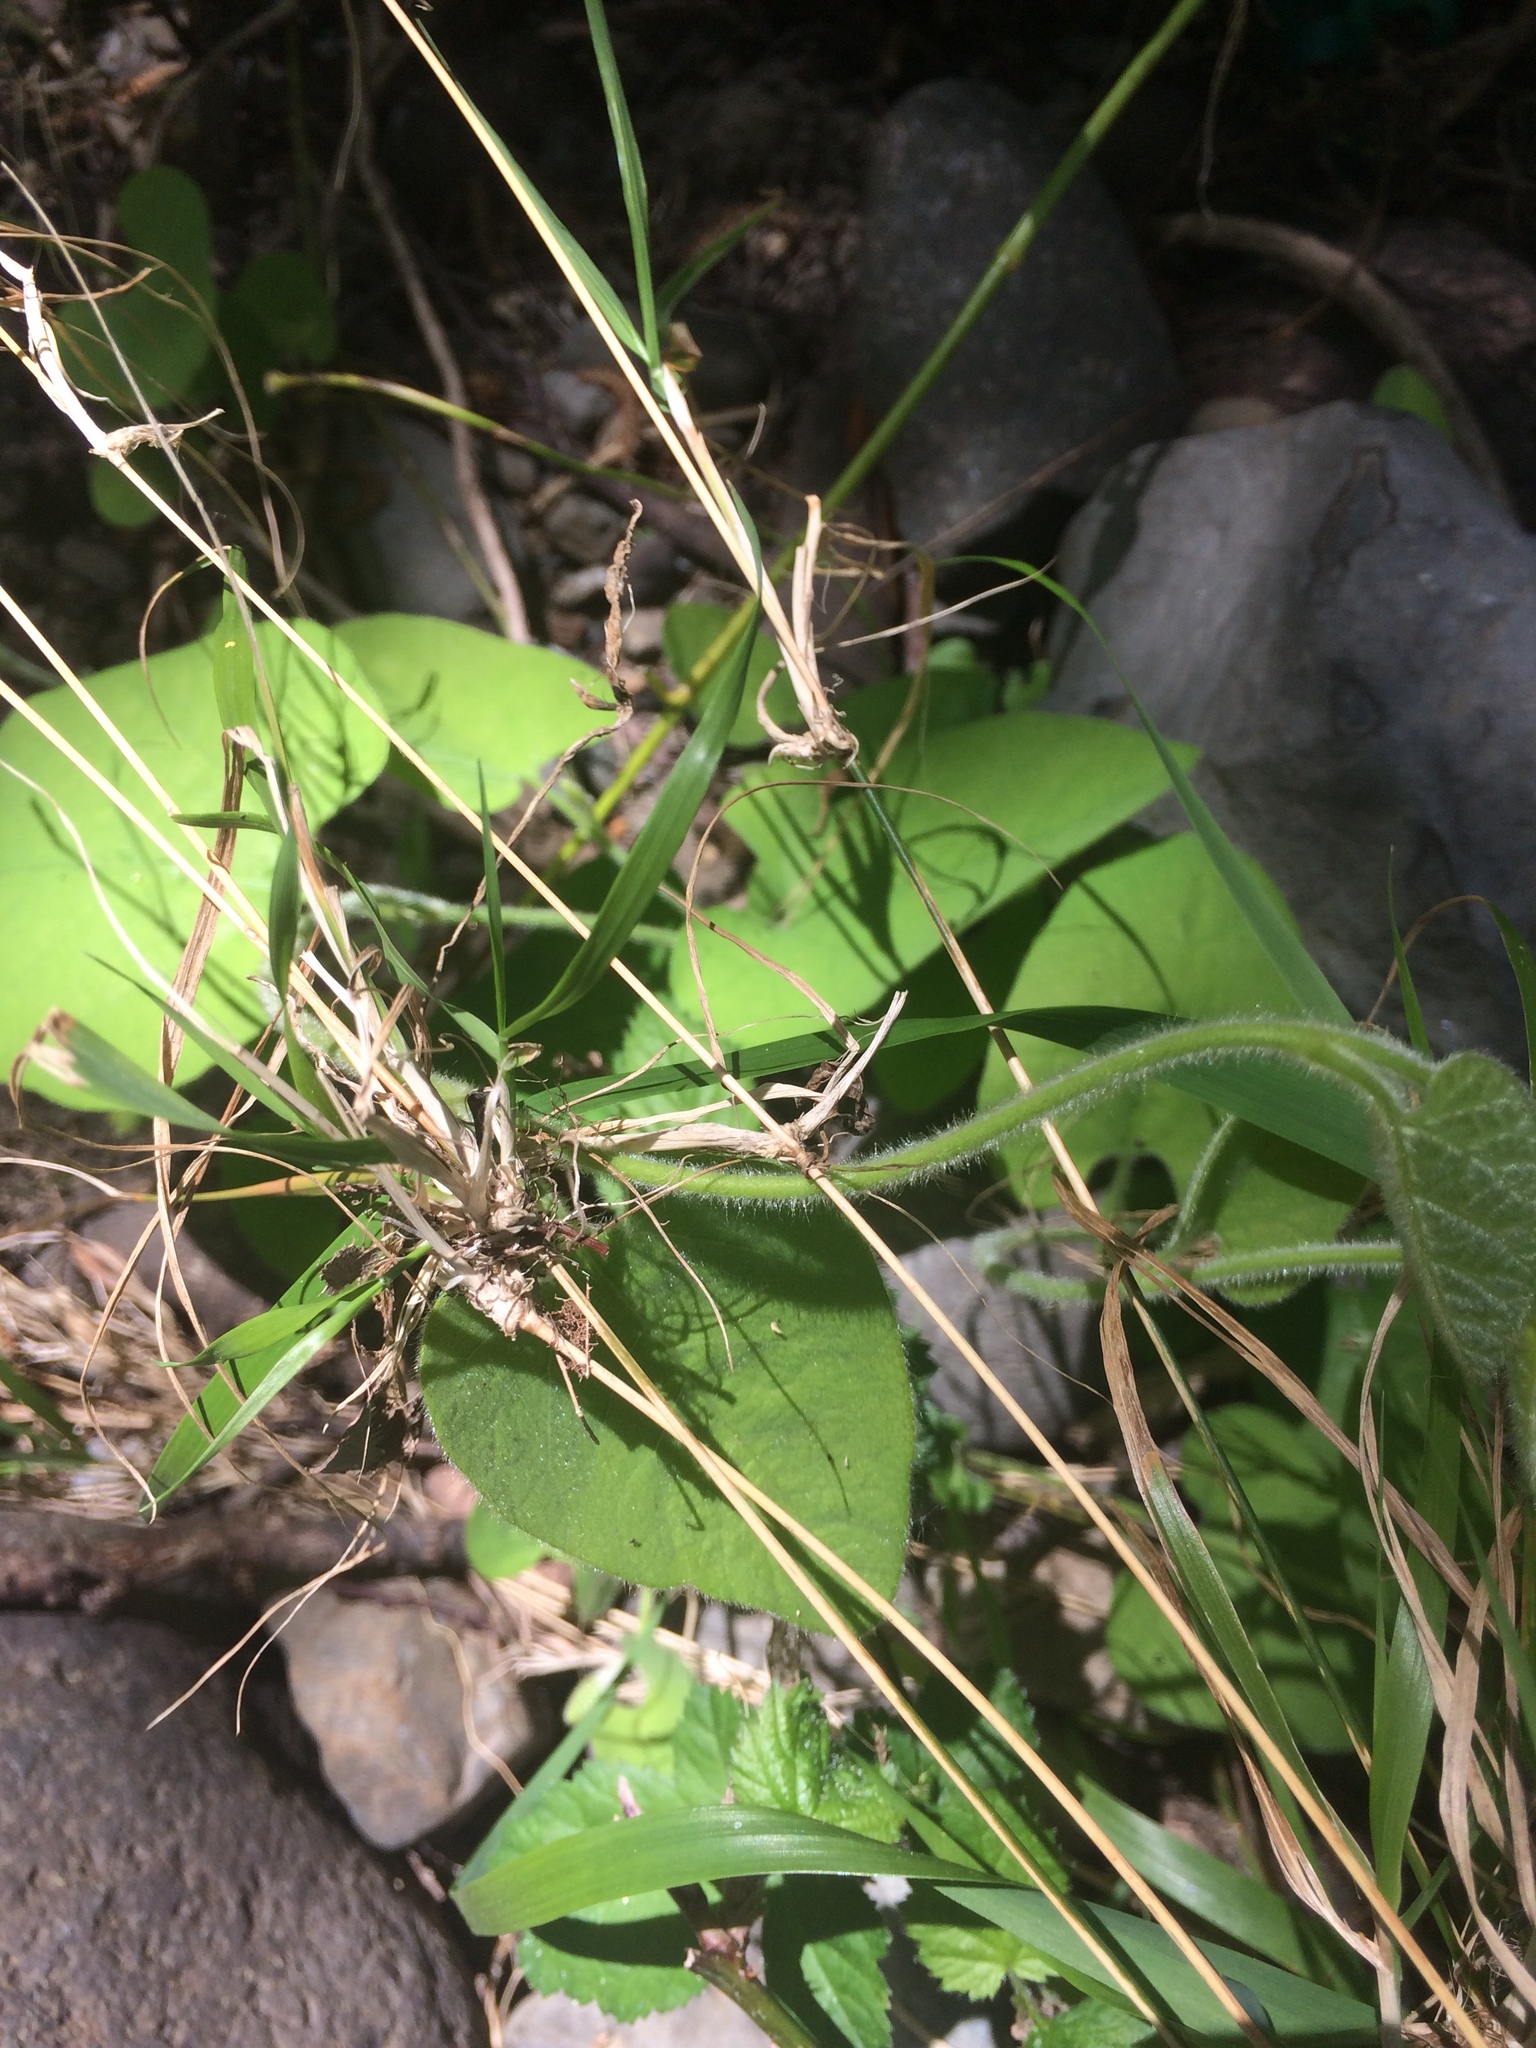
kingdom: Plantae
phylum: Tracheophyta
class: Magnoliopsida
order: Piperales
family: Aristolochiaceae
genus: Isotrema
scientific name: Isotrema californicum
